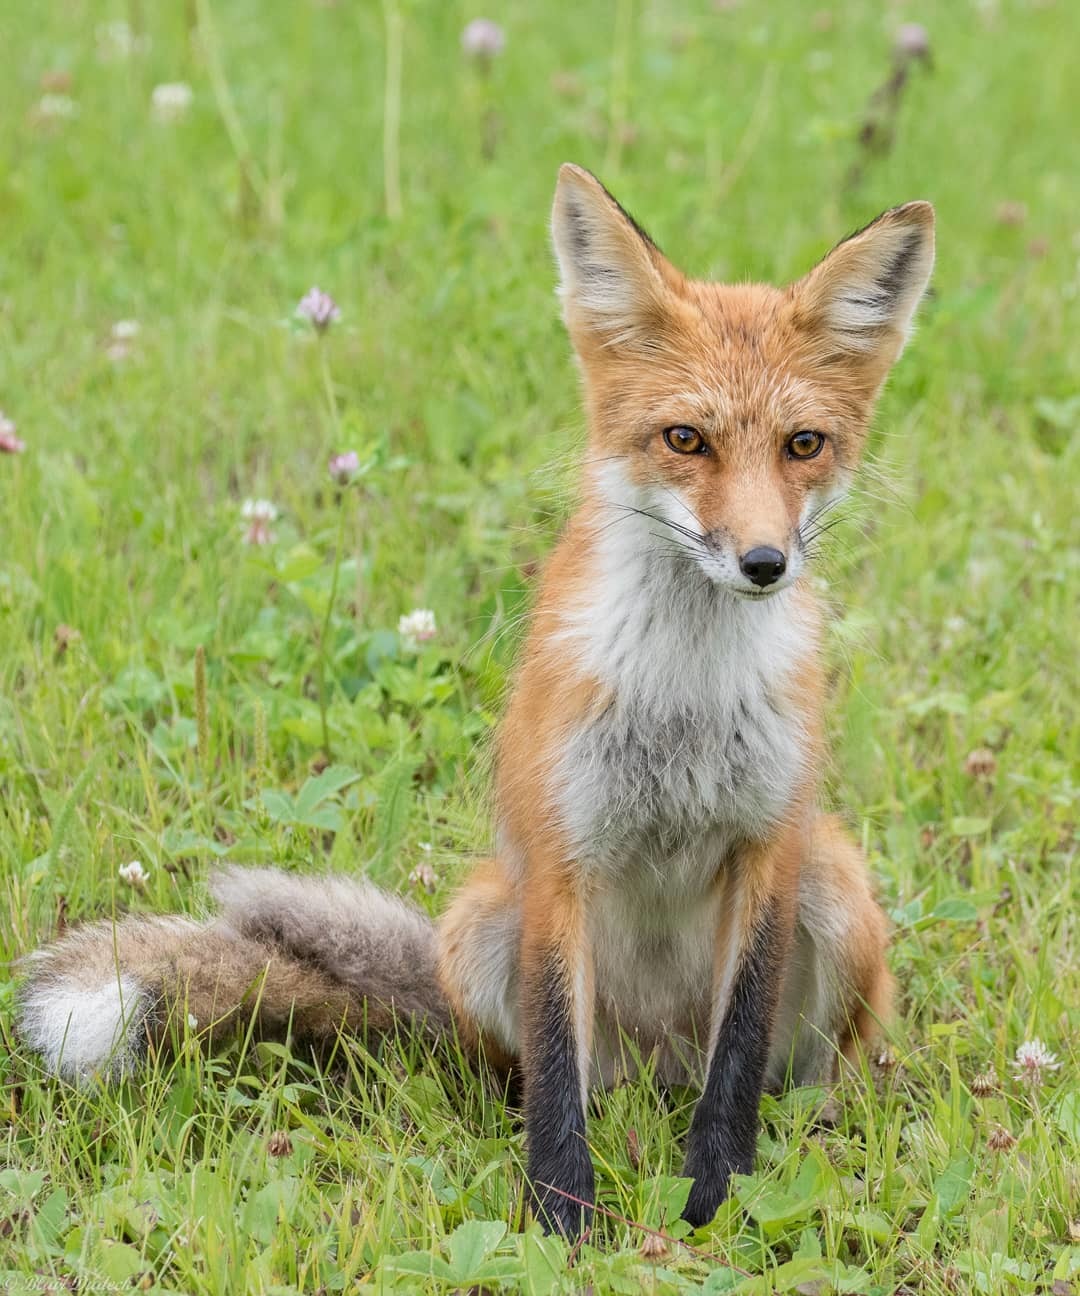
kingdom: Animalia
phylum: Chordata
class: Mammalia
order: Carnivora
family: Canidae
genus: Vulpes
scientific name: Vulpes vulpes
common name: Red fox
